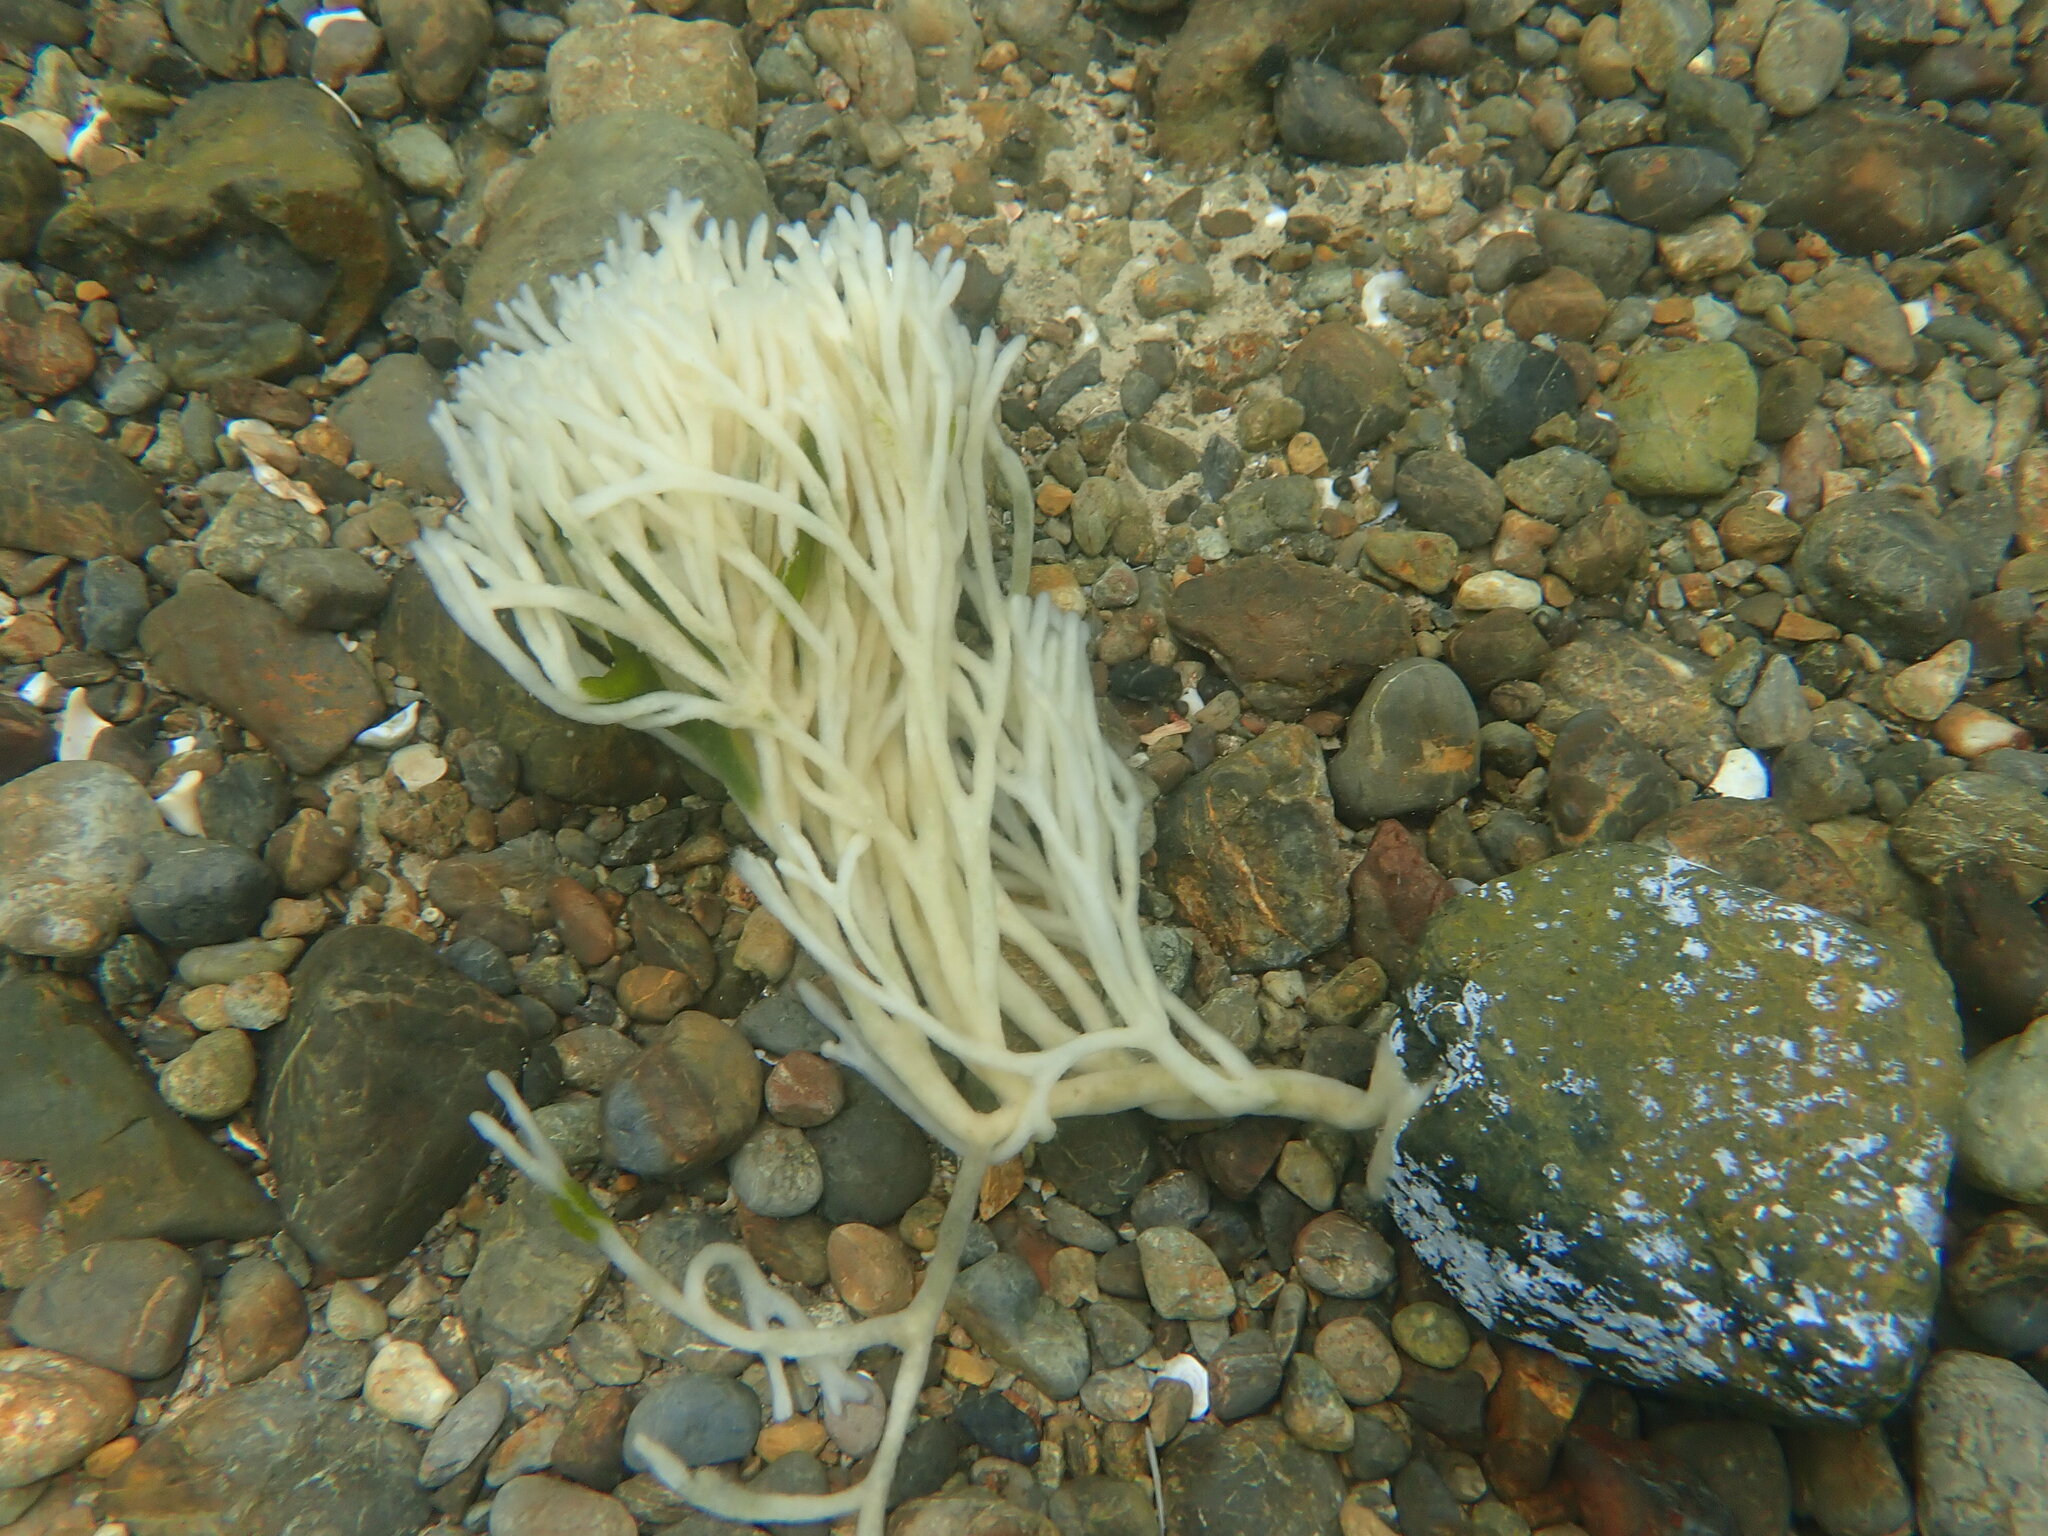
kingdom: Plantae
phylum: Chlorophyta
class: Ulvophyceae
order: Bryopsidales
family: Codiaceae
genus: Codium
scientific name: Codium fragile
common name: Dead man's fingers
